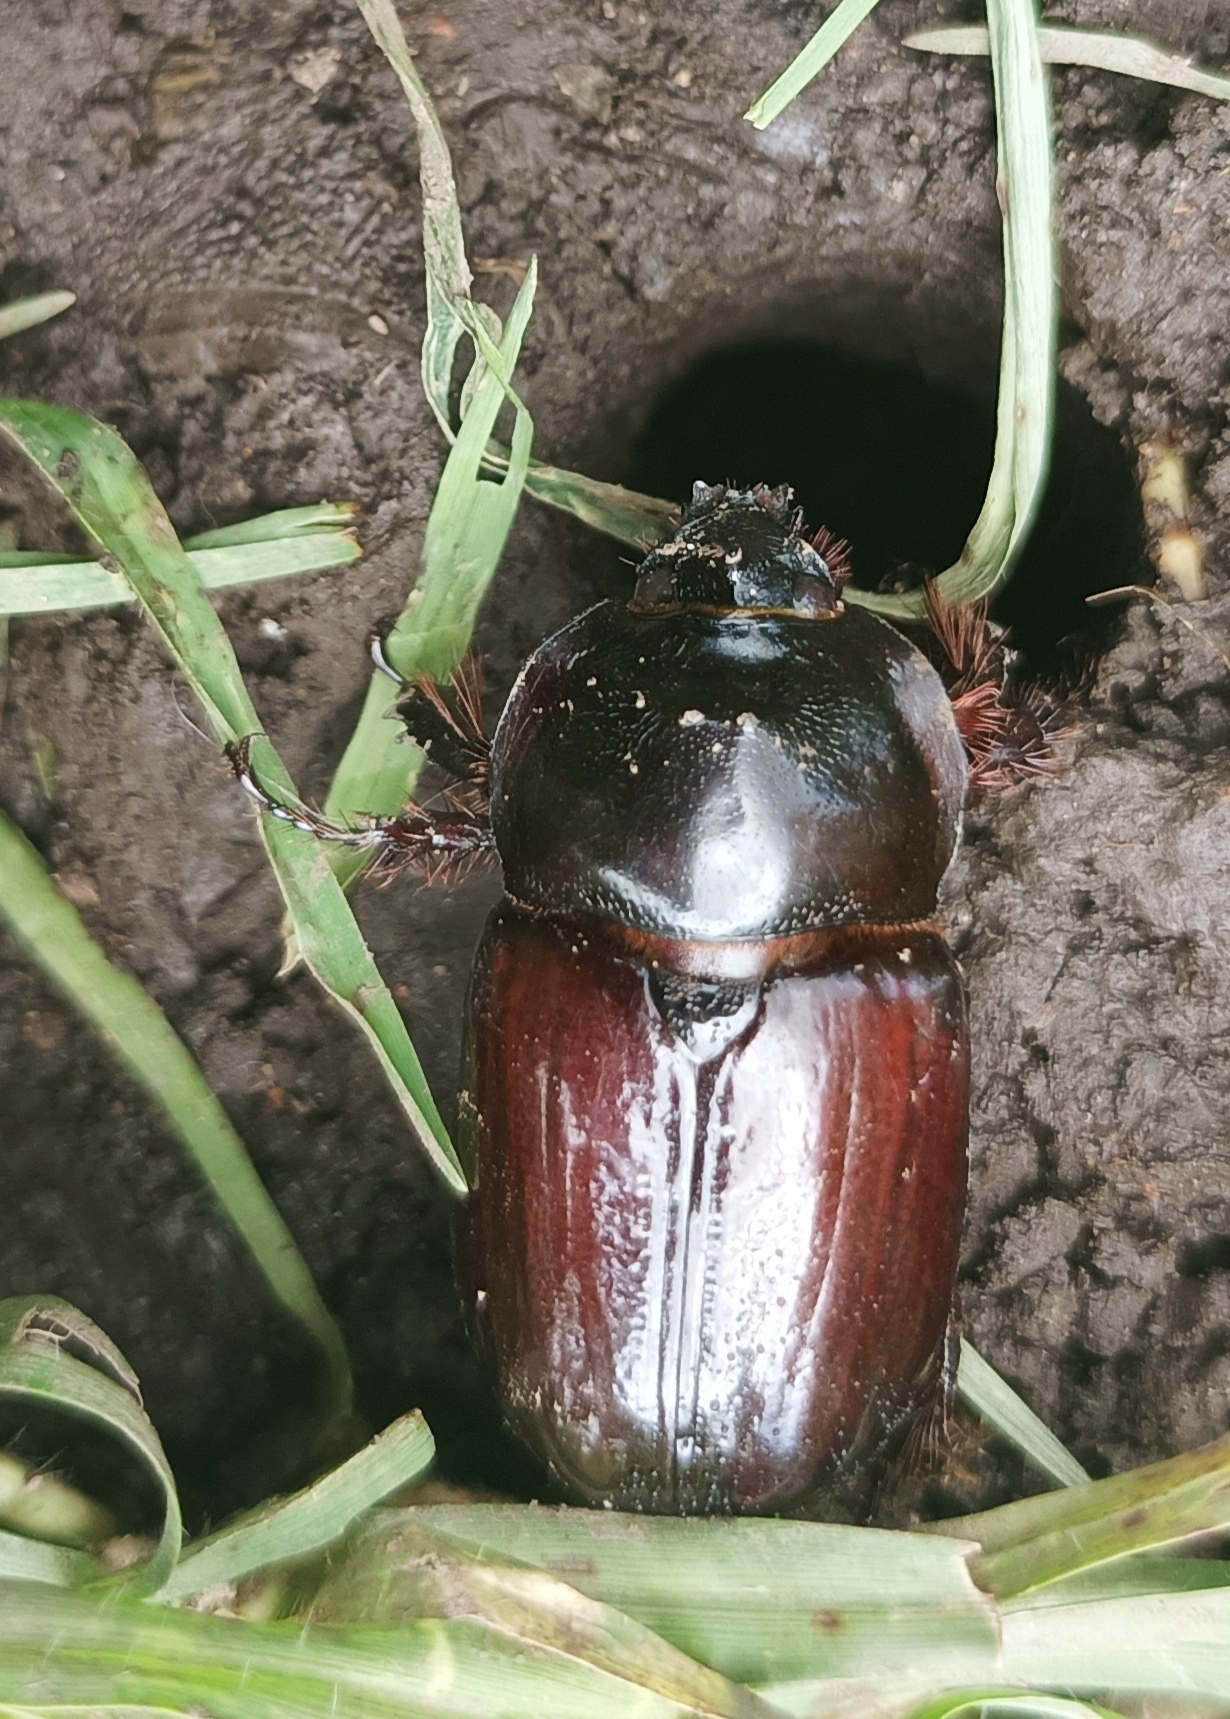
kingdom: Animalia
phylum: Arthropoda
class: Insecta
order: Coleoptera
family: Scarabaeidae
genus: Heterogomphus
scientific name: Heterogomphus dilaticollis
